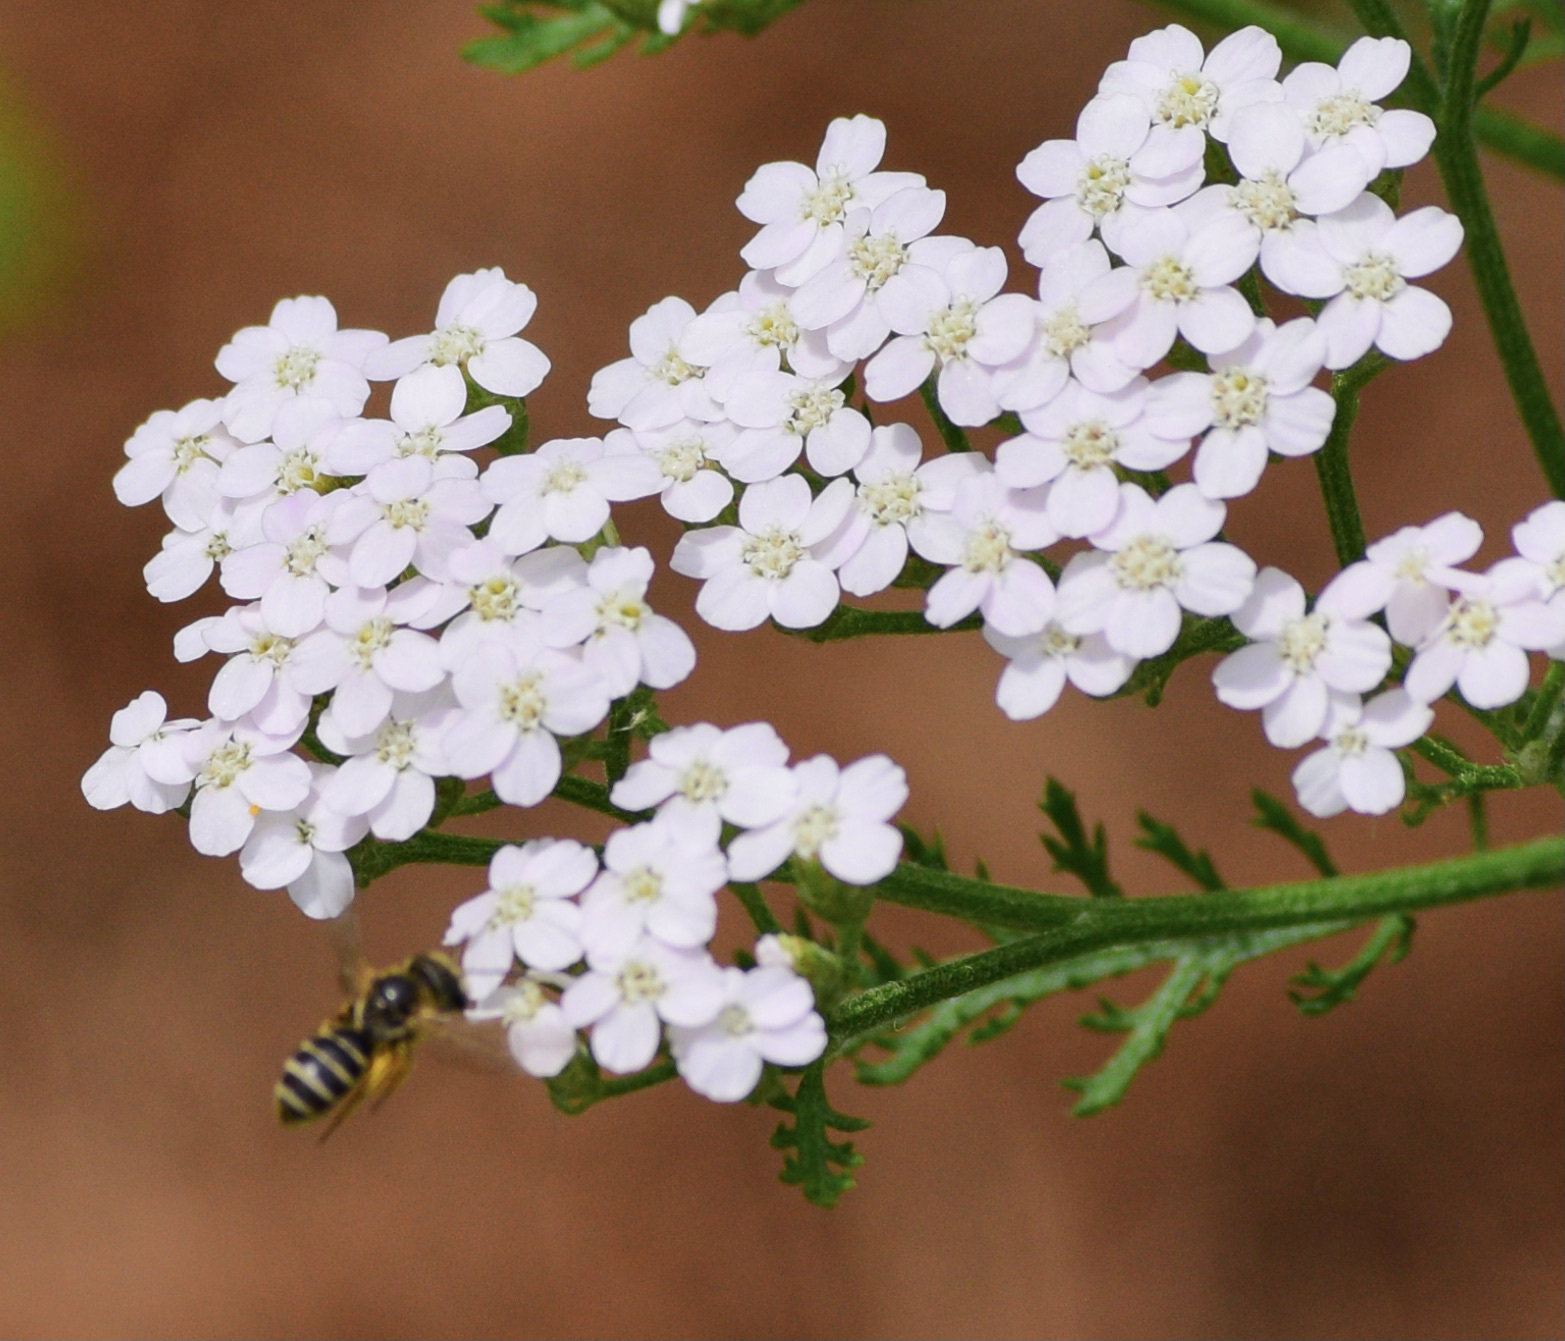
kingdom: Animalia
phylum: Arthropoda
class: Insecta
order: Hymenoptera
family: Halictidae
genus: Halictus
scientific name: Halictus ligatus
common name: Ligated furrow bee
